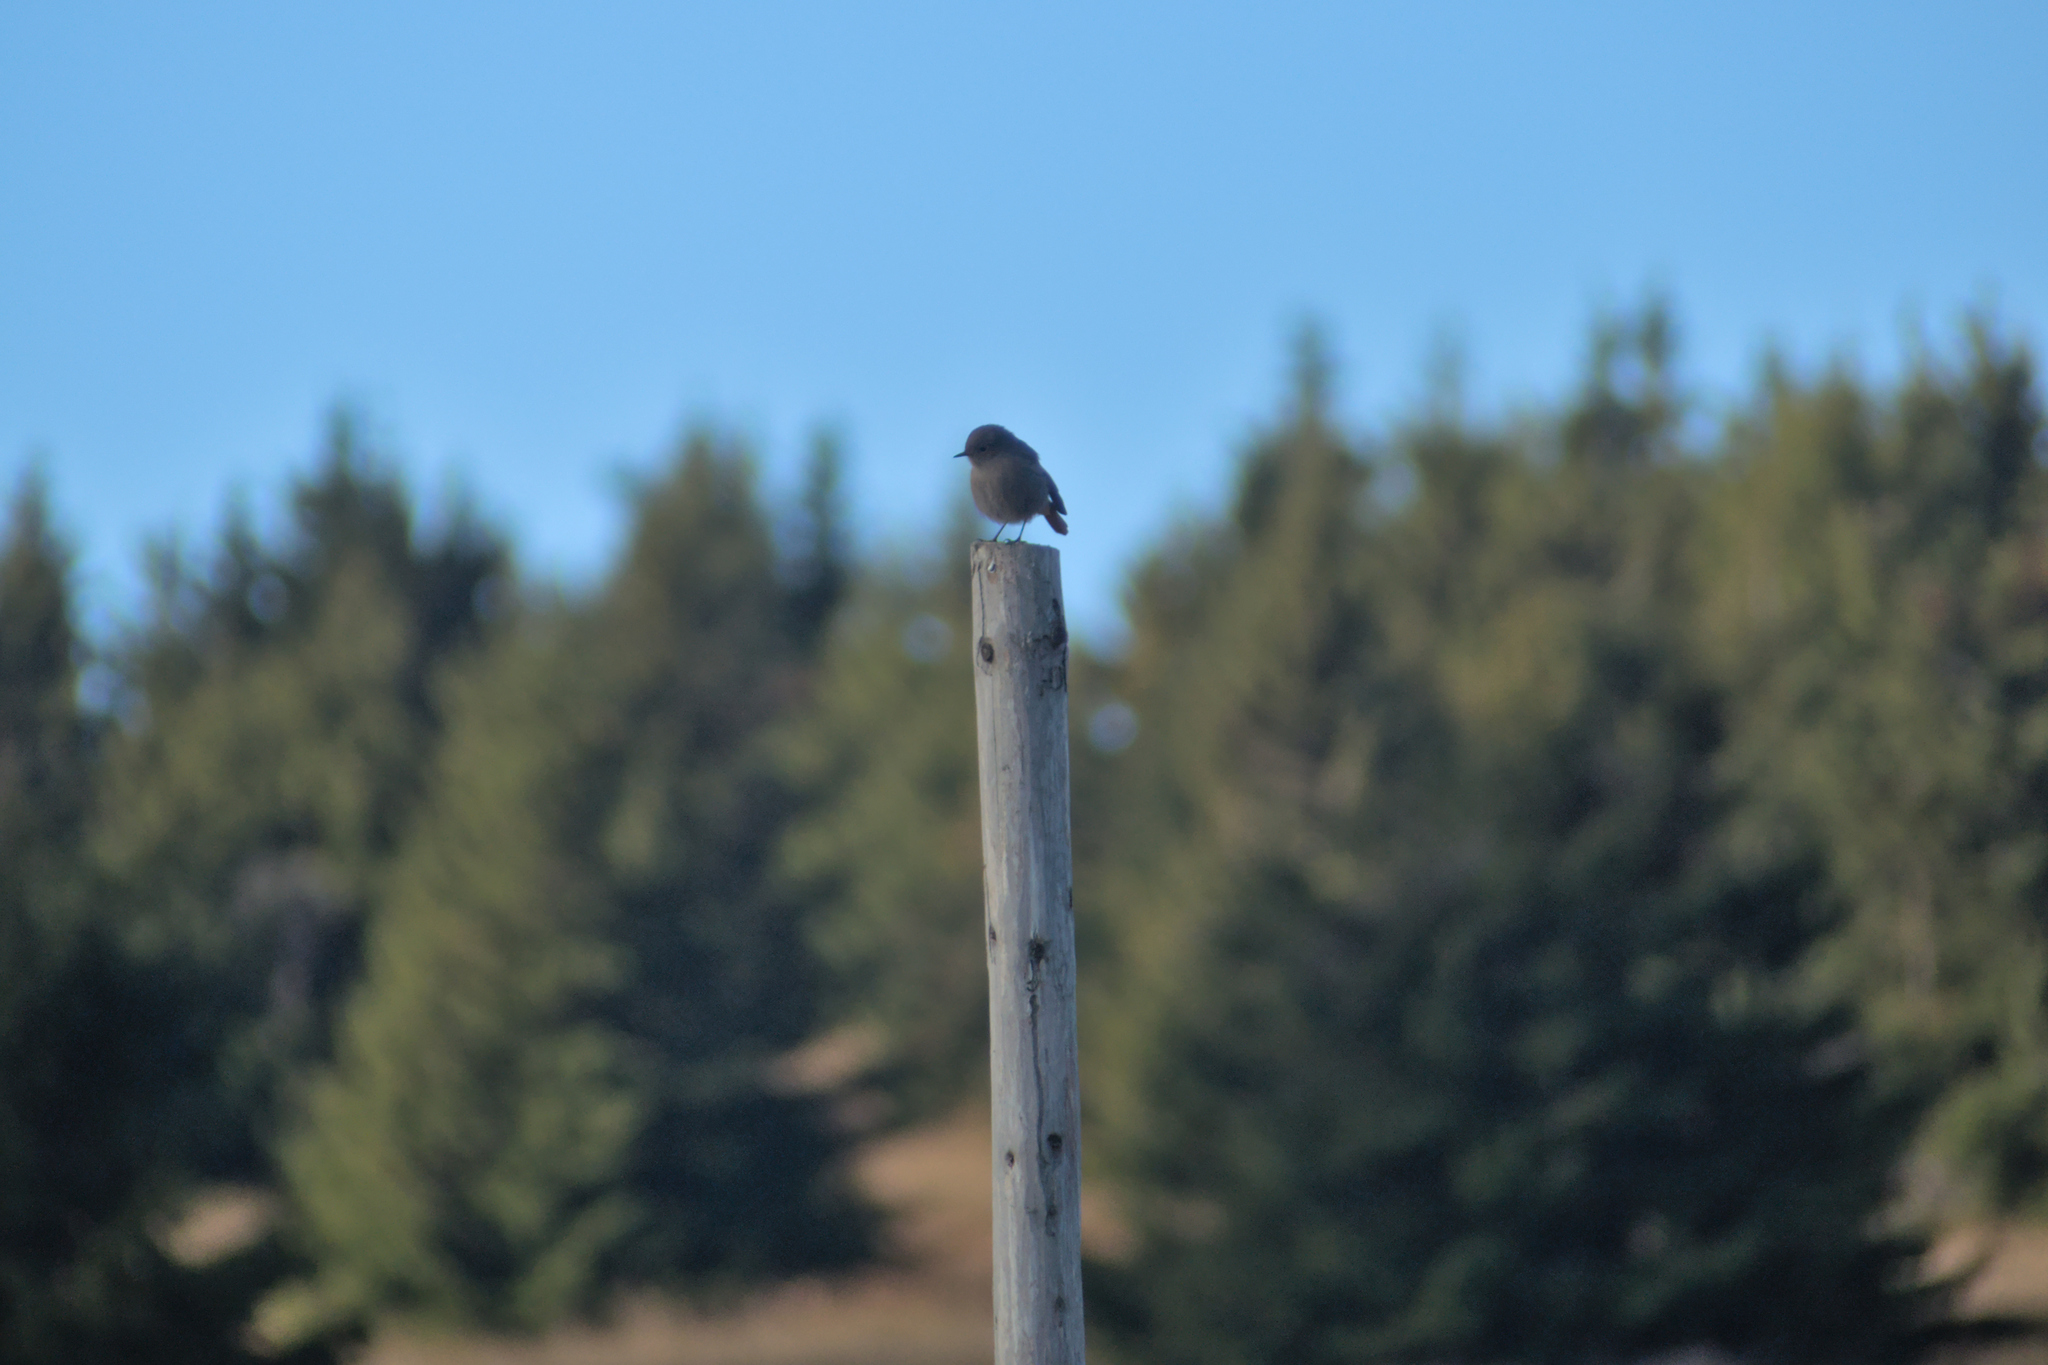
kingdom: Animalia
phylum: Chordata
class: Aves
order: Passeriformes
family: Muscicapidae
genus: Phoenicurus
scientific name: Phoenicurus ochruros
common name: Black redstart
